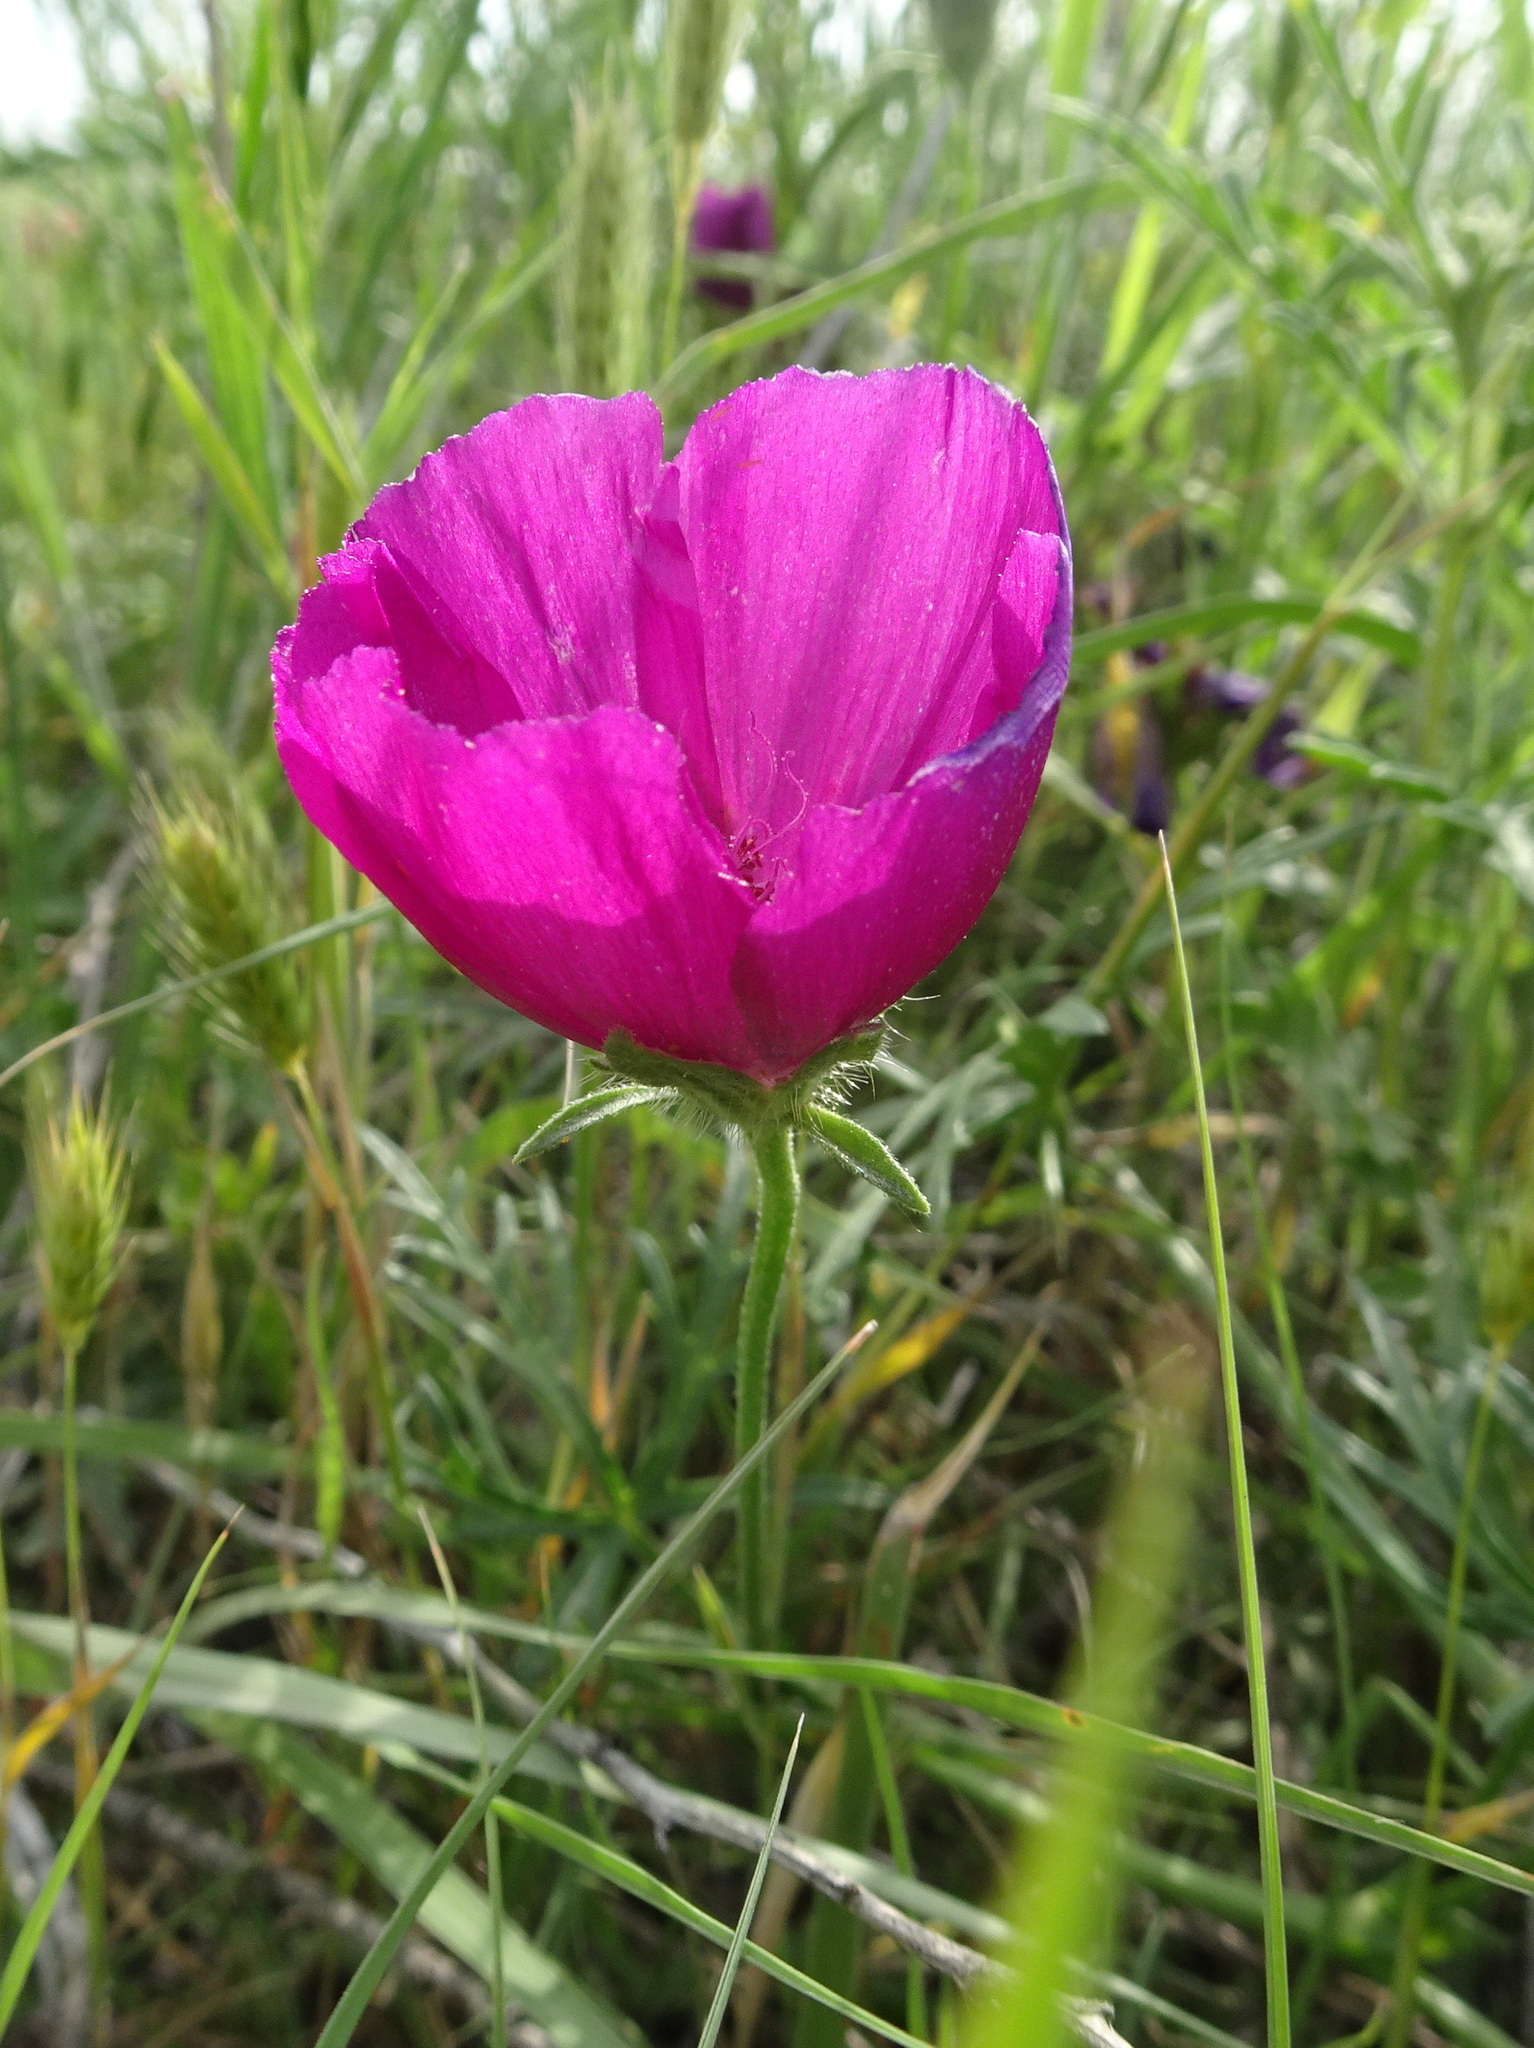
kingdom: Plantae
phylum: Tracheophyta
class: Magnoliopsida
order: Malvales
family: Malvaceae
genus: Callirhoe
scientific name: Callirhoe involucrata
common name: Purple poppy-mallow
